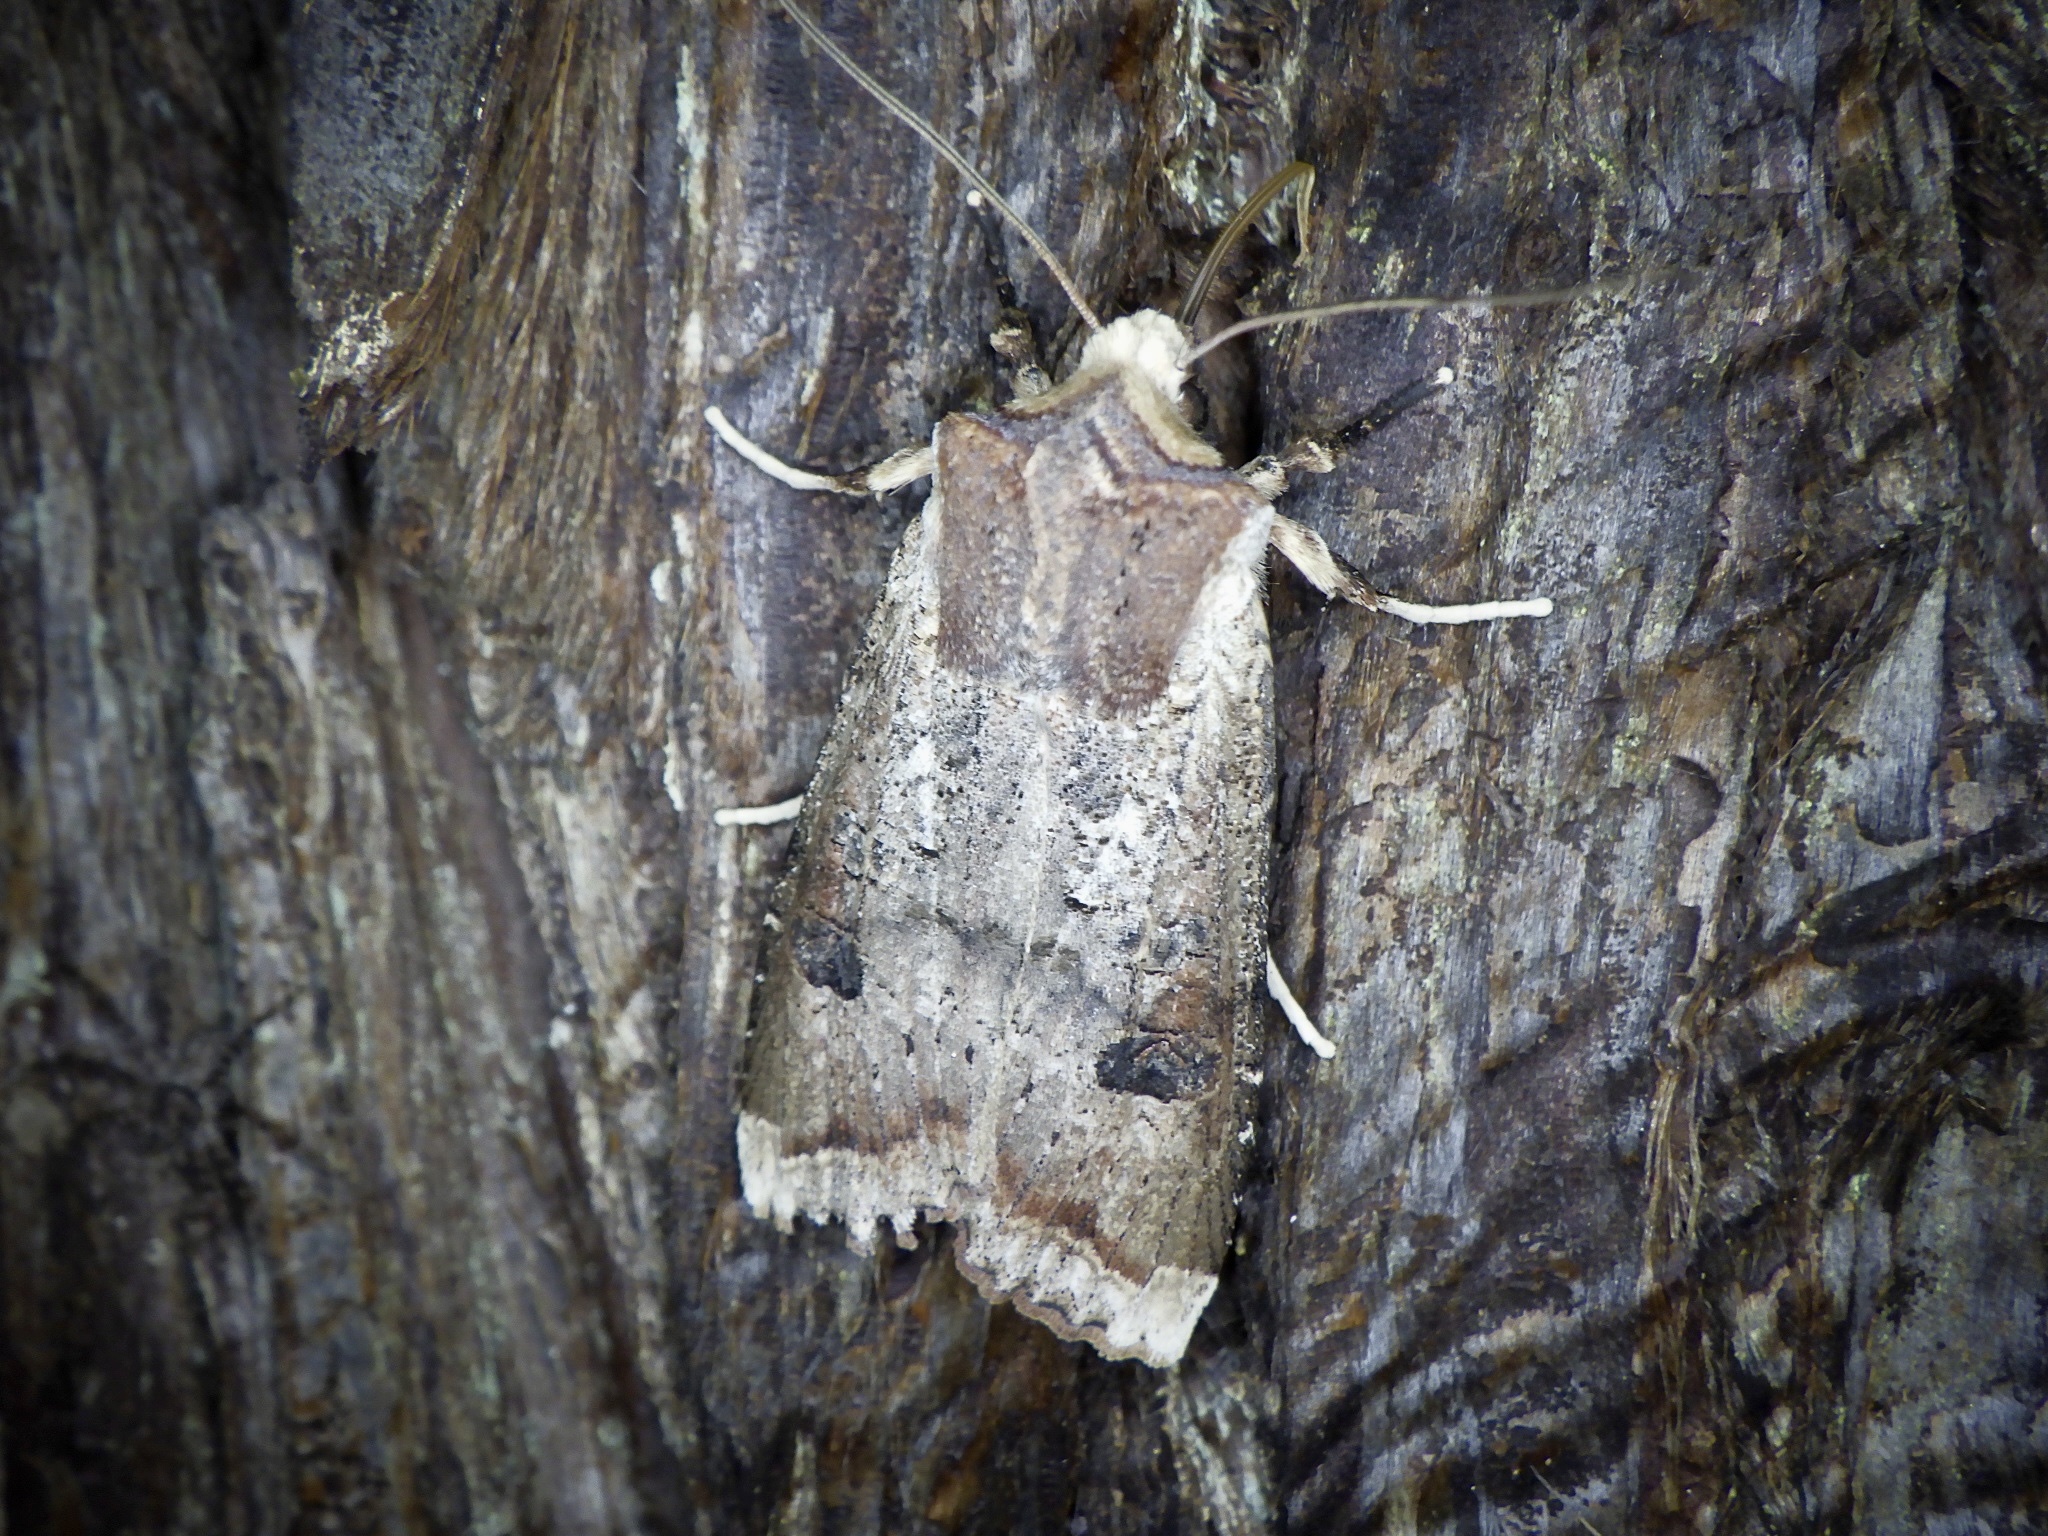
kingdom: Animalia
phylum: Arthropoda
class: Insecta
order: Lepidoptera
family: Noctuidae
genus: Xylena
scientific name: Xylena formosa
